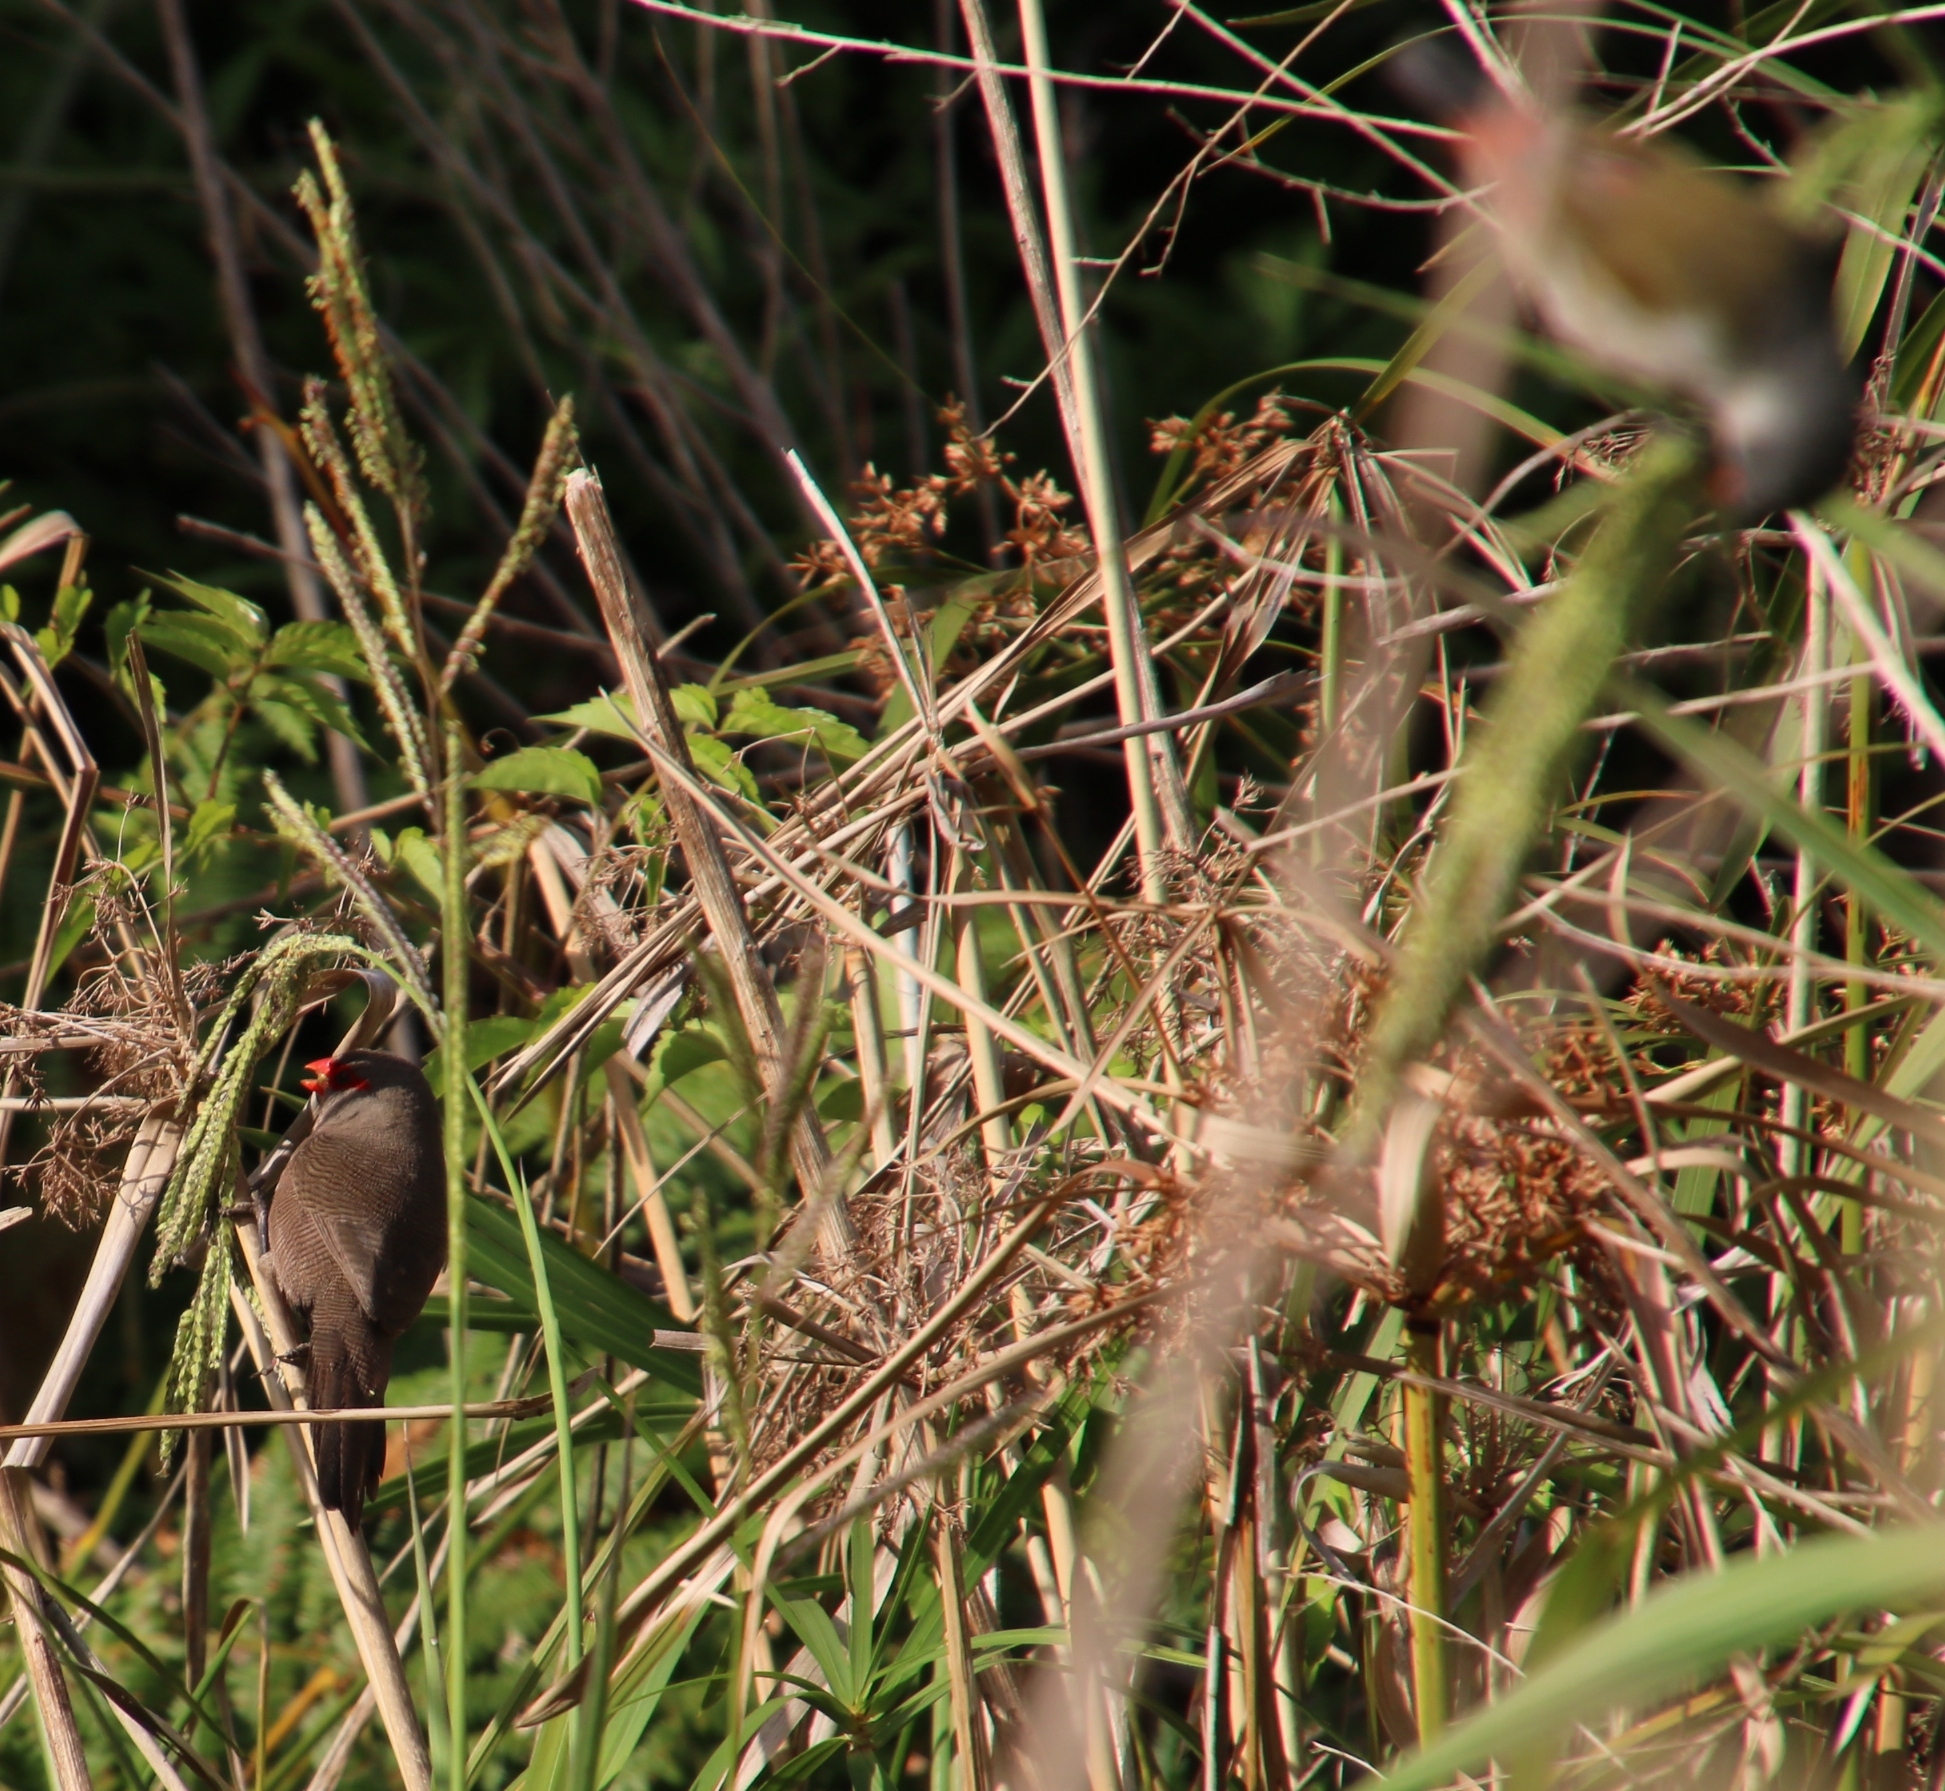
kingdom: Animalia
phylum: Chordata
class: Aves
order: Passeriformes
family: Estrildidae
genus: Estrilda
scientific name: Estrilda astrild
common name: Common waxbill
